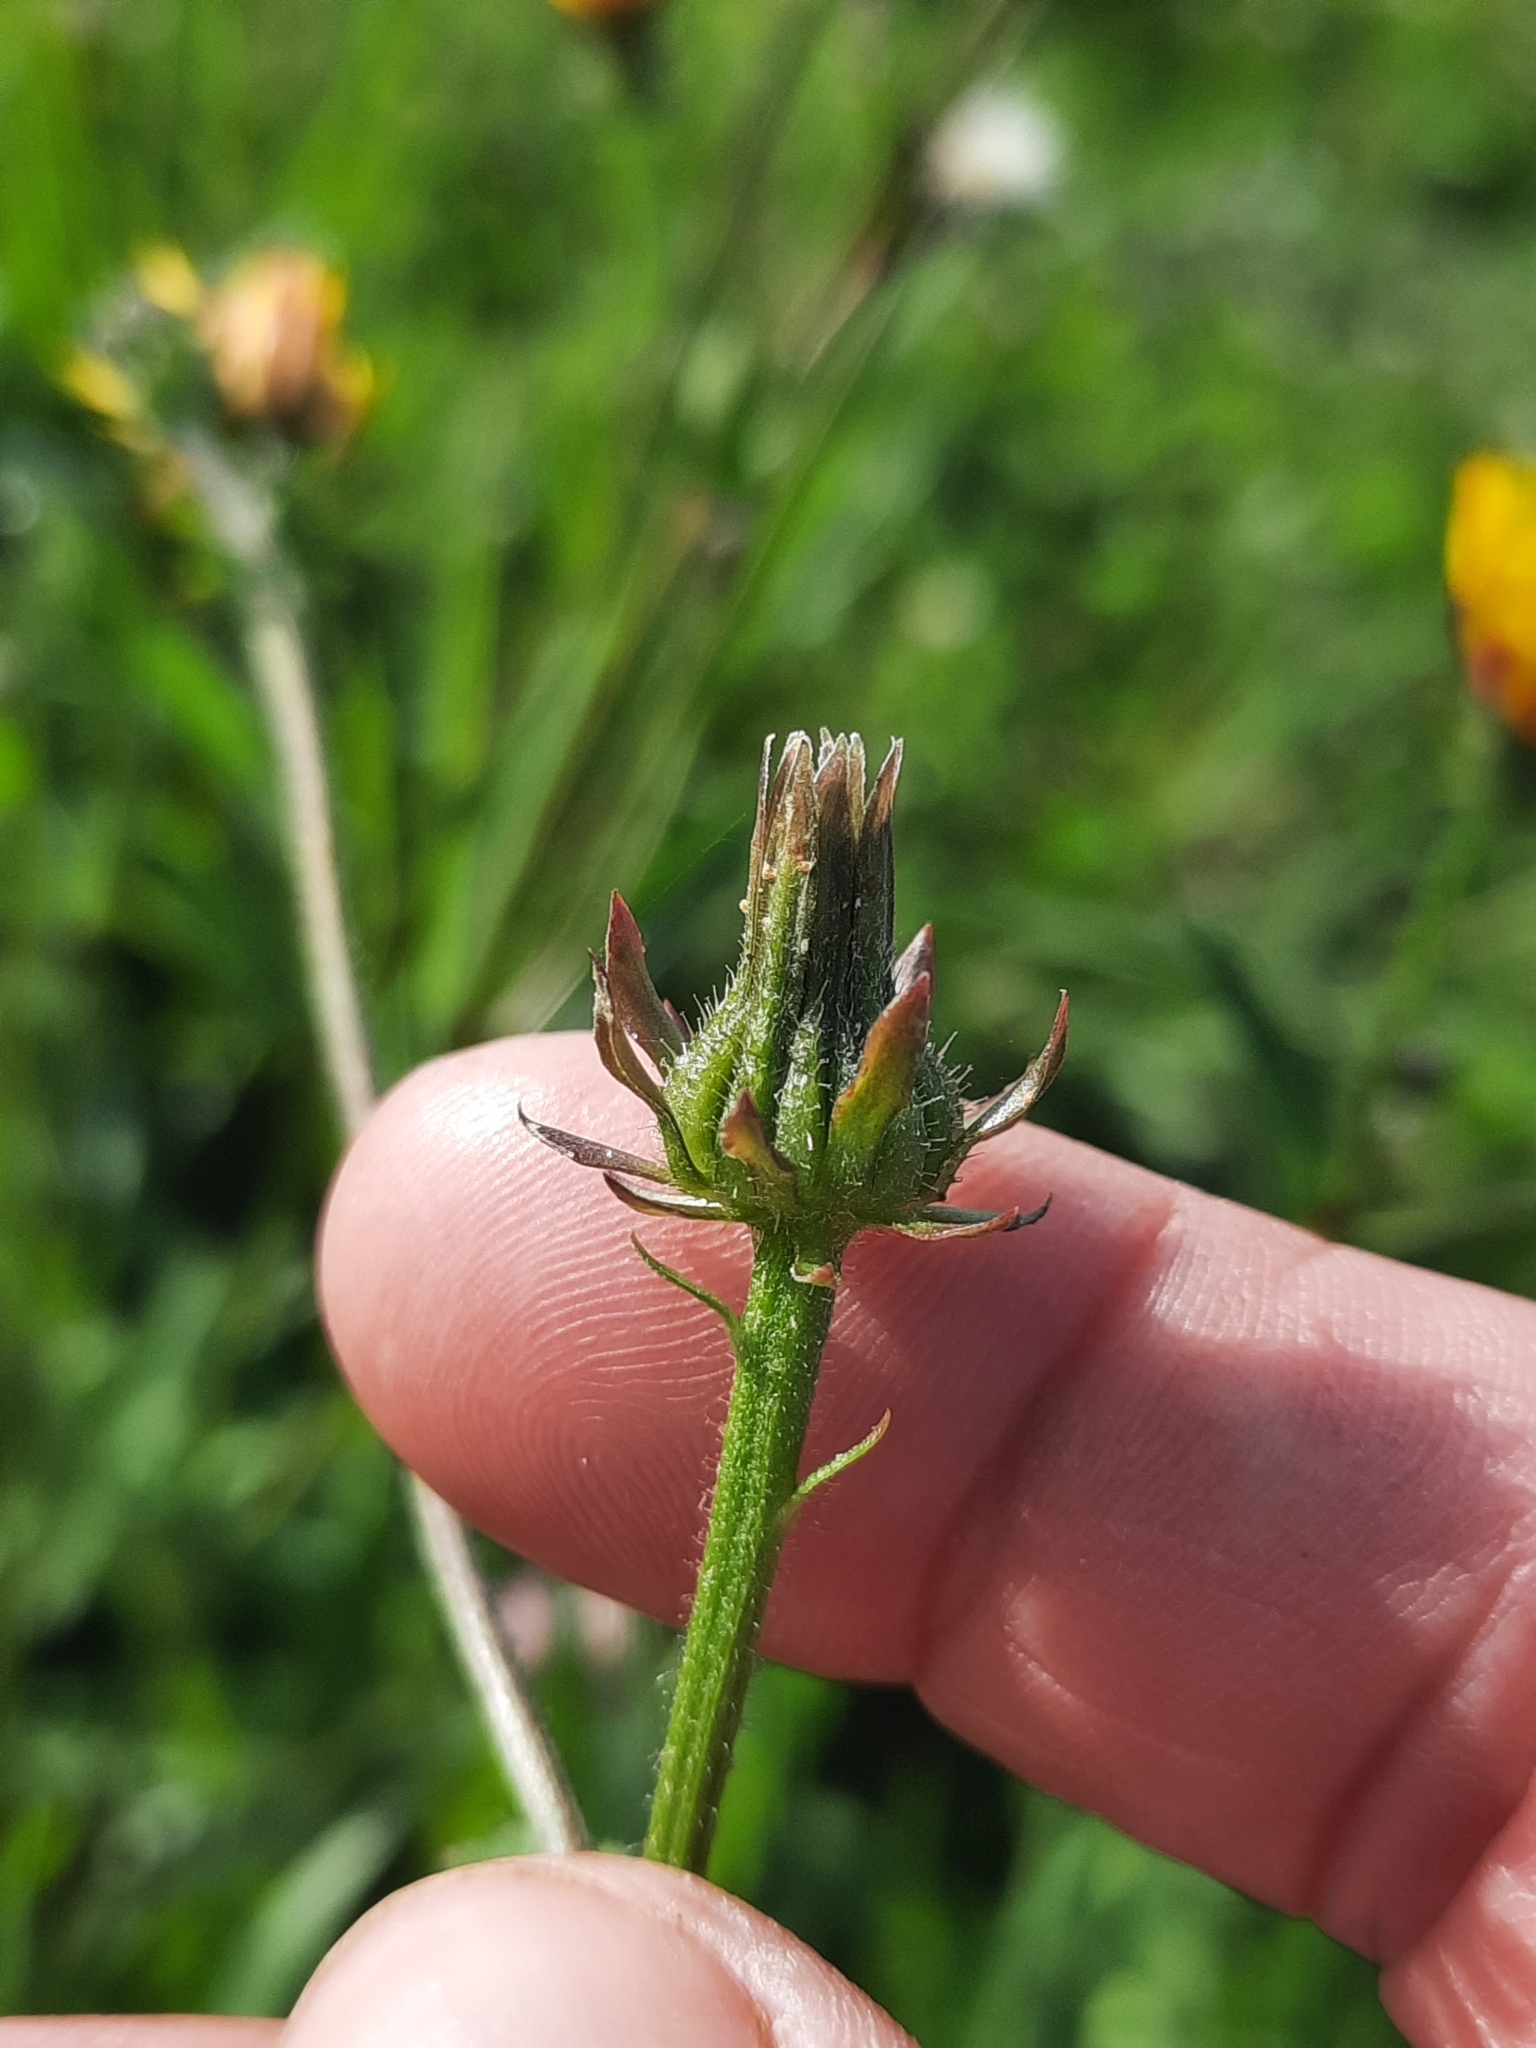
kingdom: Plantae
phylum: Tracheophyta
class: Magnoliopsida
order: Asterales
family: Asteraceae
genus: Picris
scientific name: Picris hieracioides
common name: Hawkweed oxtongue
